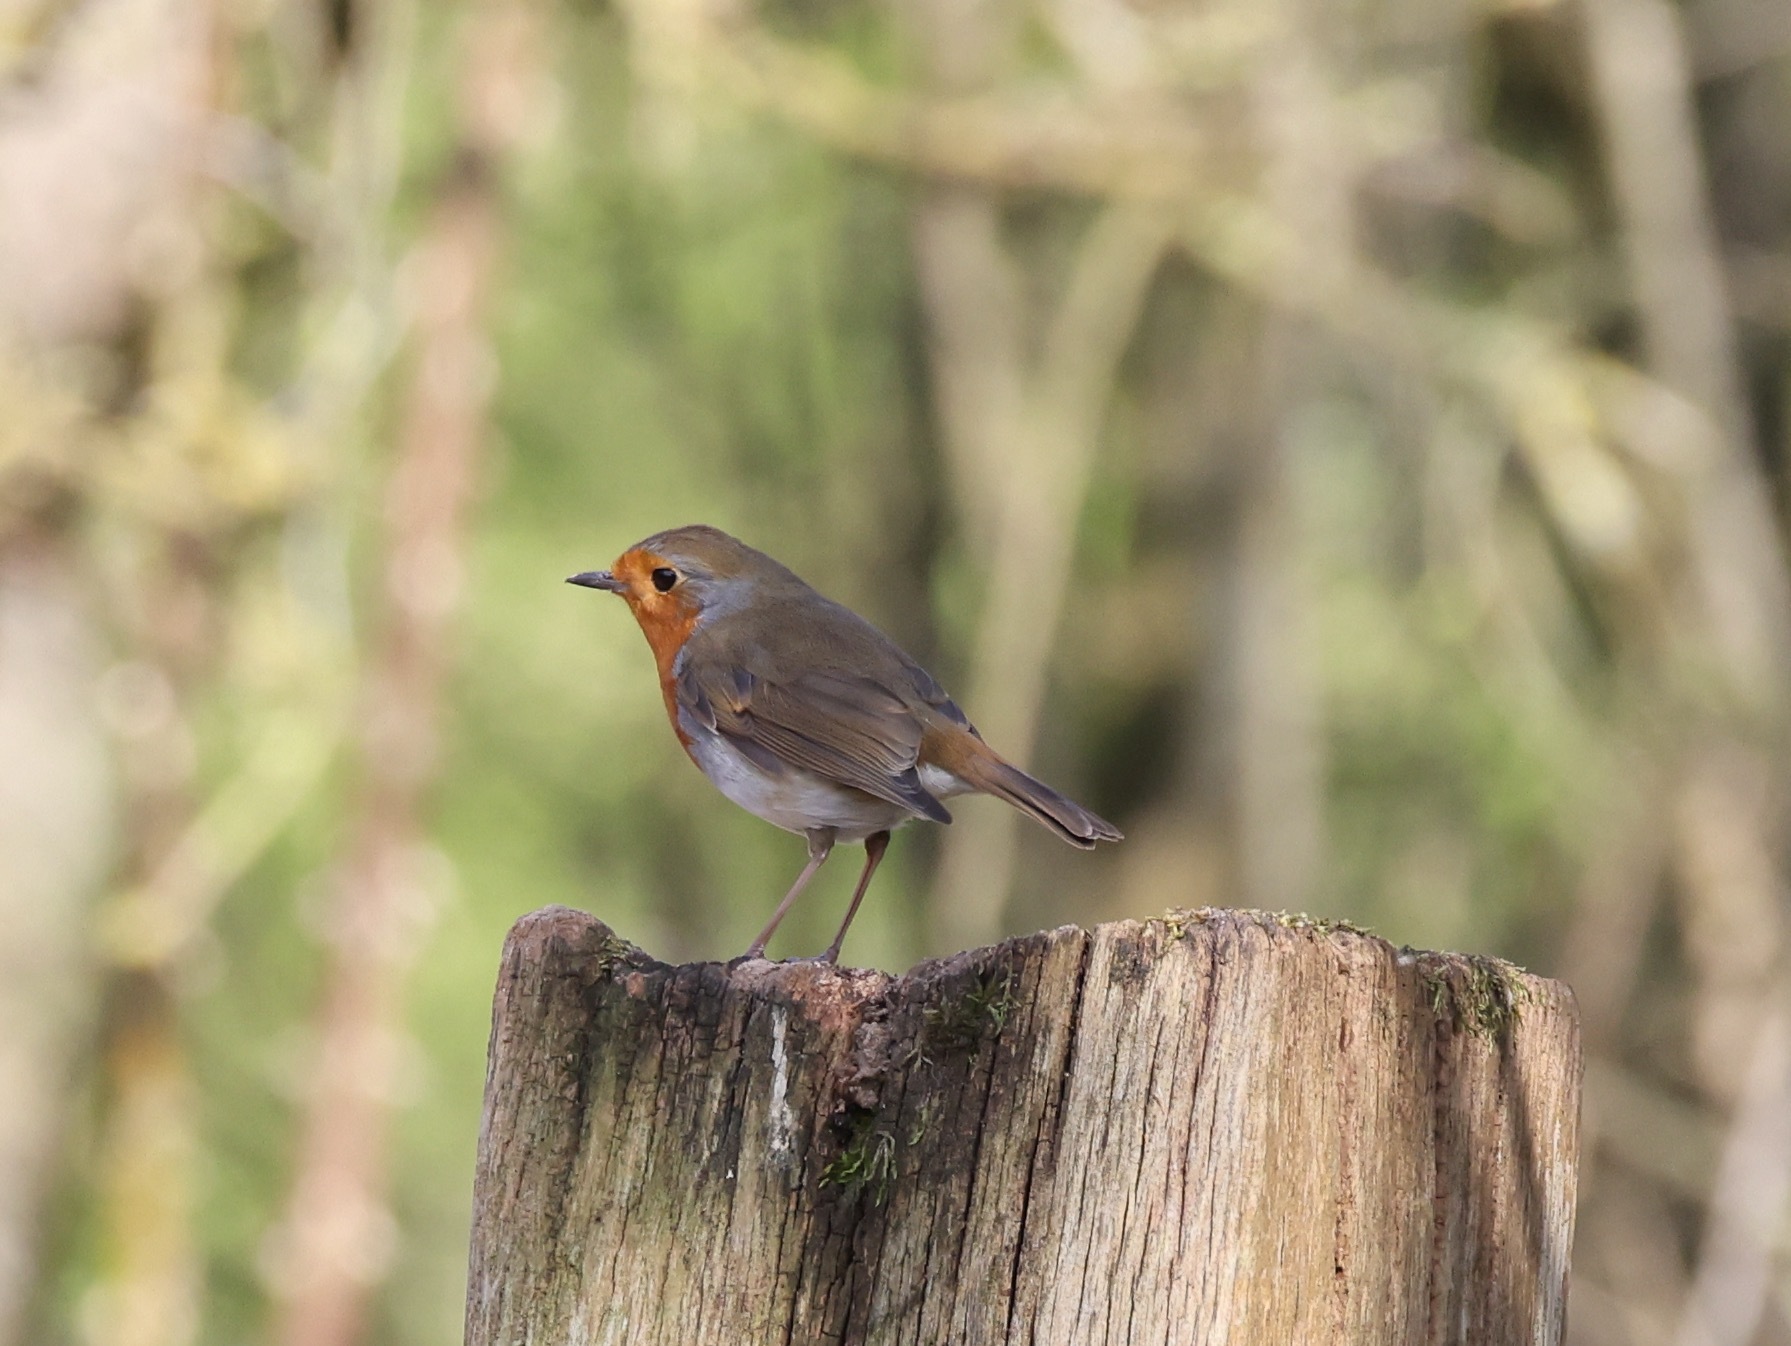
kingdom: Animalia
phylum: Chordata
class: Aves
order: Passeriformes
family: Muscicapidae
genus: Erithacus
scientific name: Erithacus rubecula
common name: European robin
